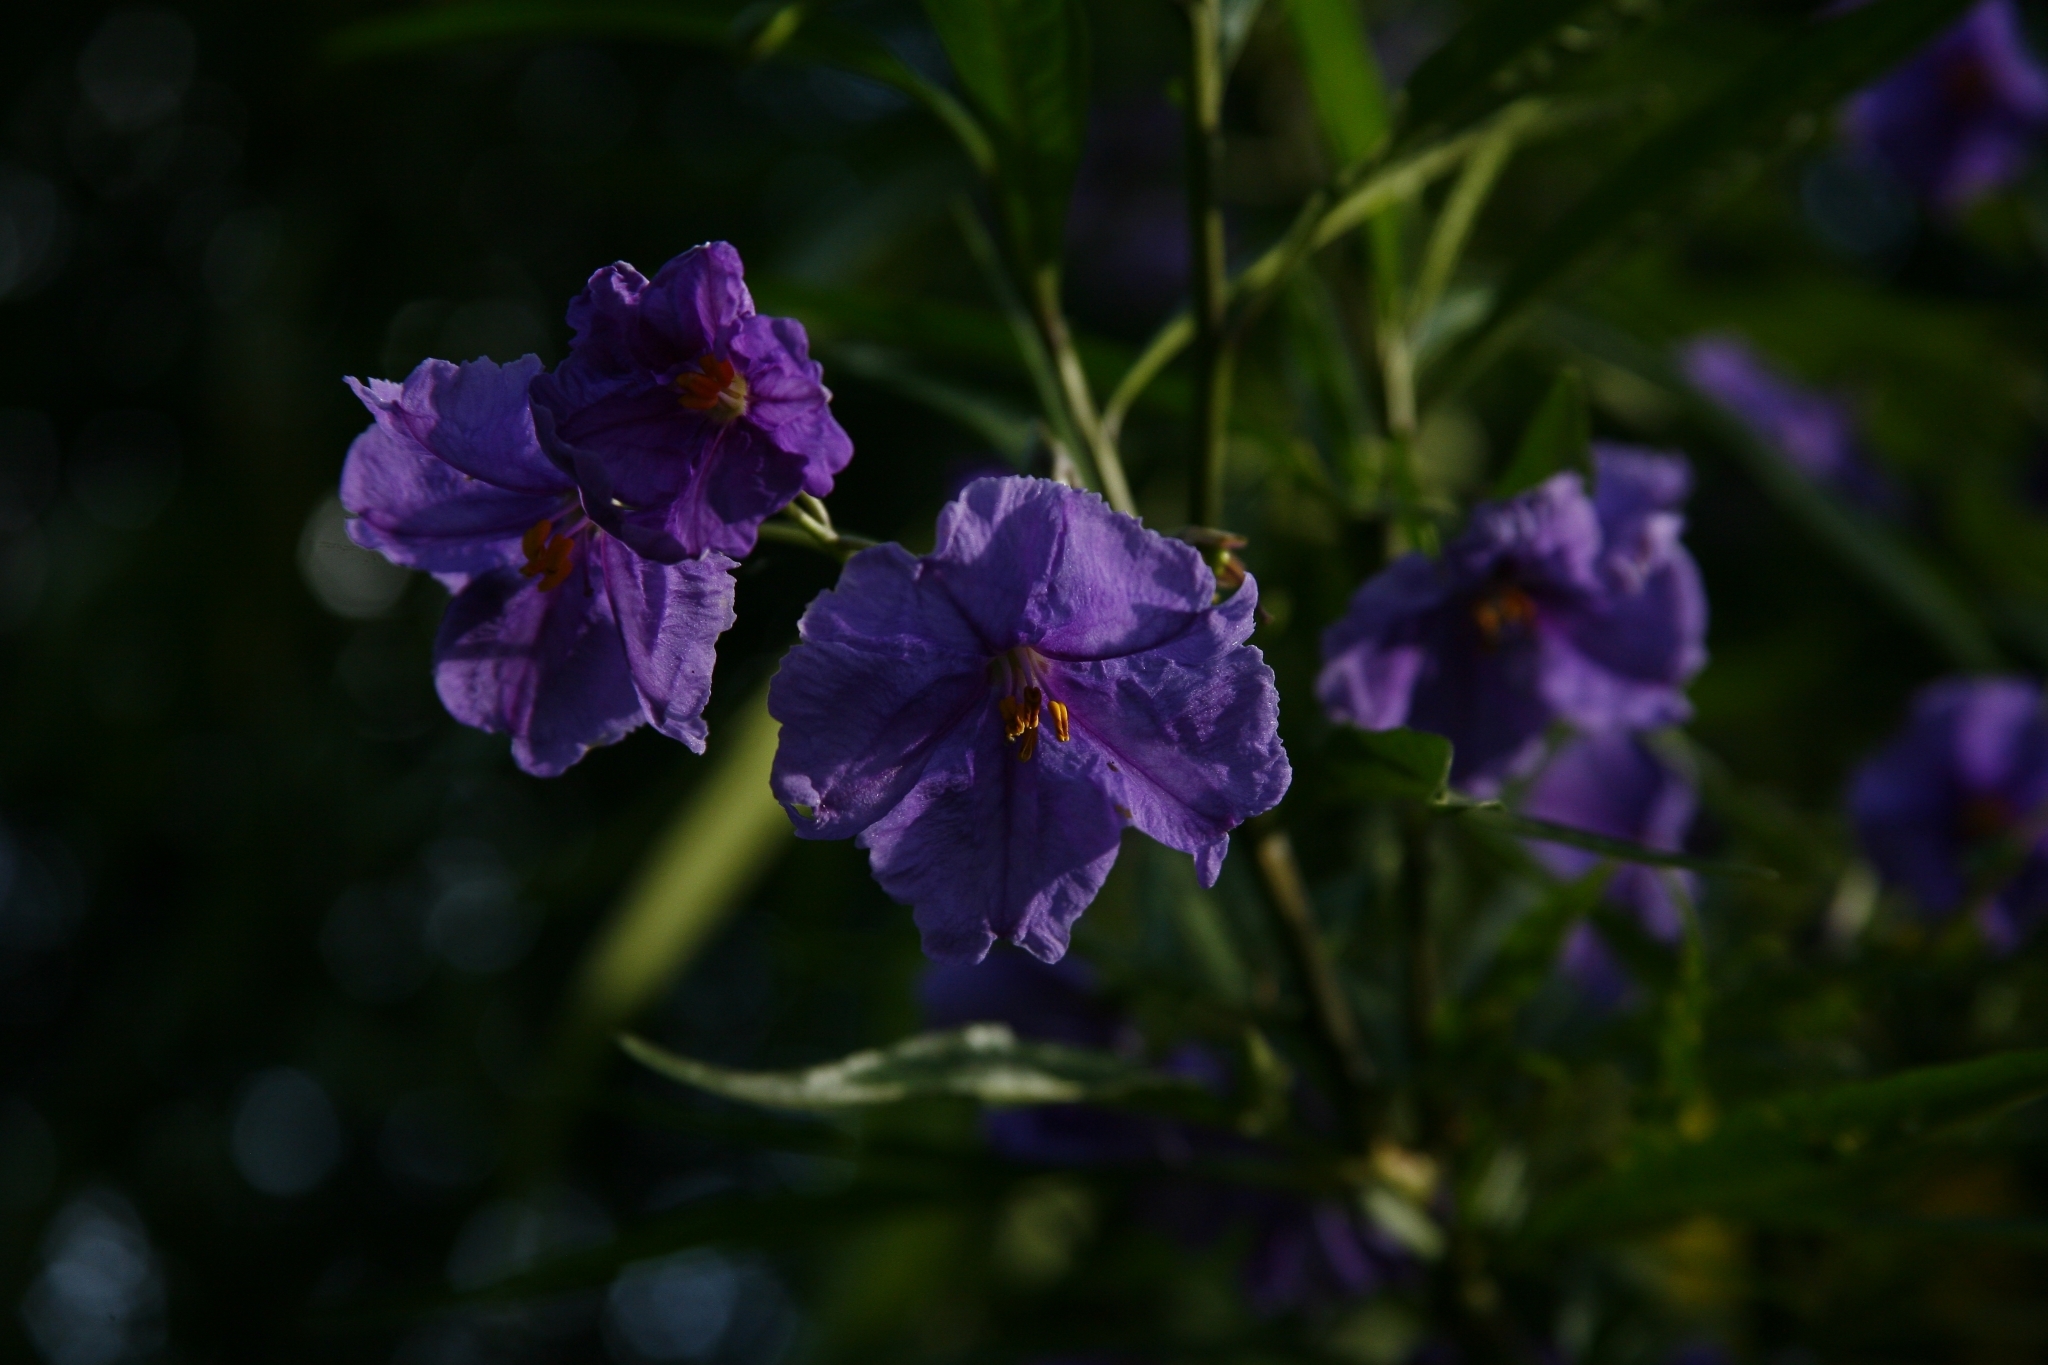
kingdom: Plantae
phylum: Tracheophyta
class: Magnoliopsida
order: Solanales
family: Solanaceae
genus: Solanum
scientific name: Solanum laciniatum
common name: Kangaroo-apple
